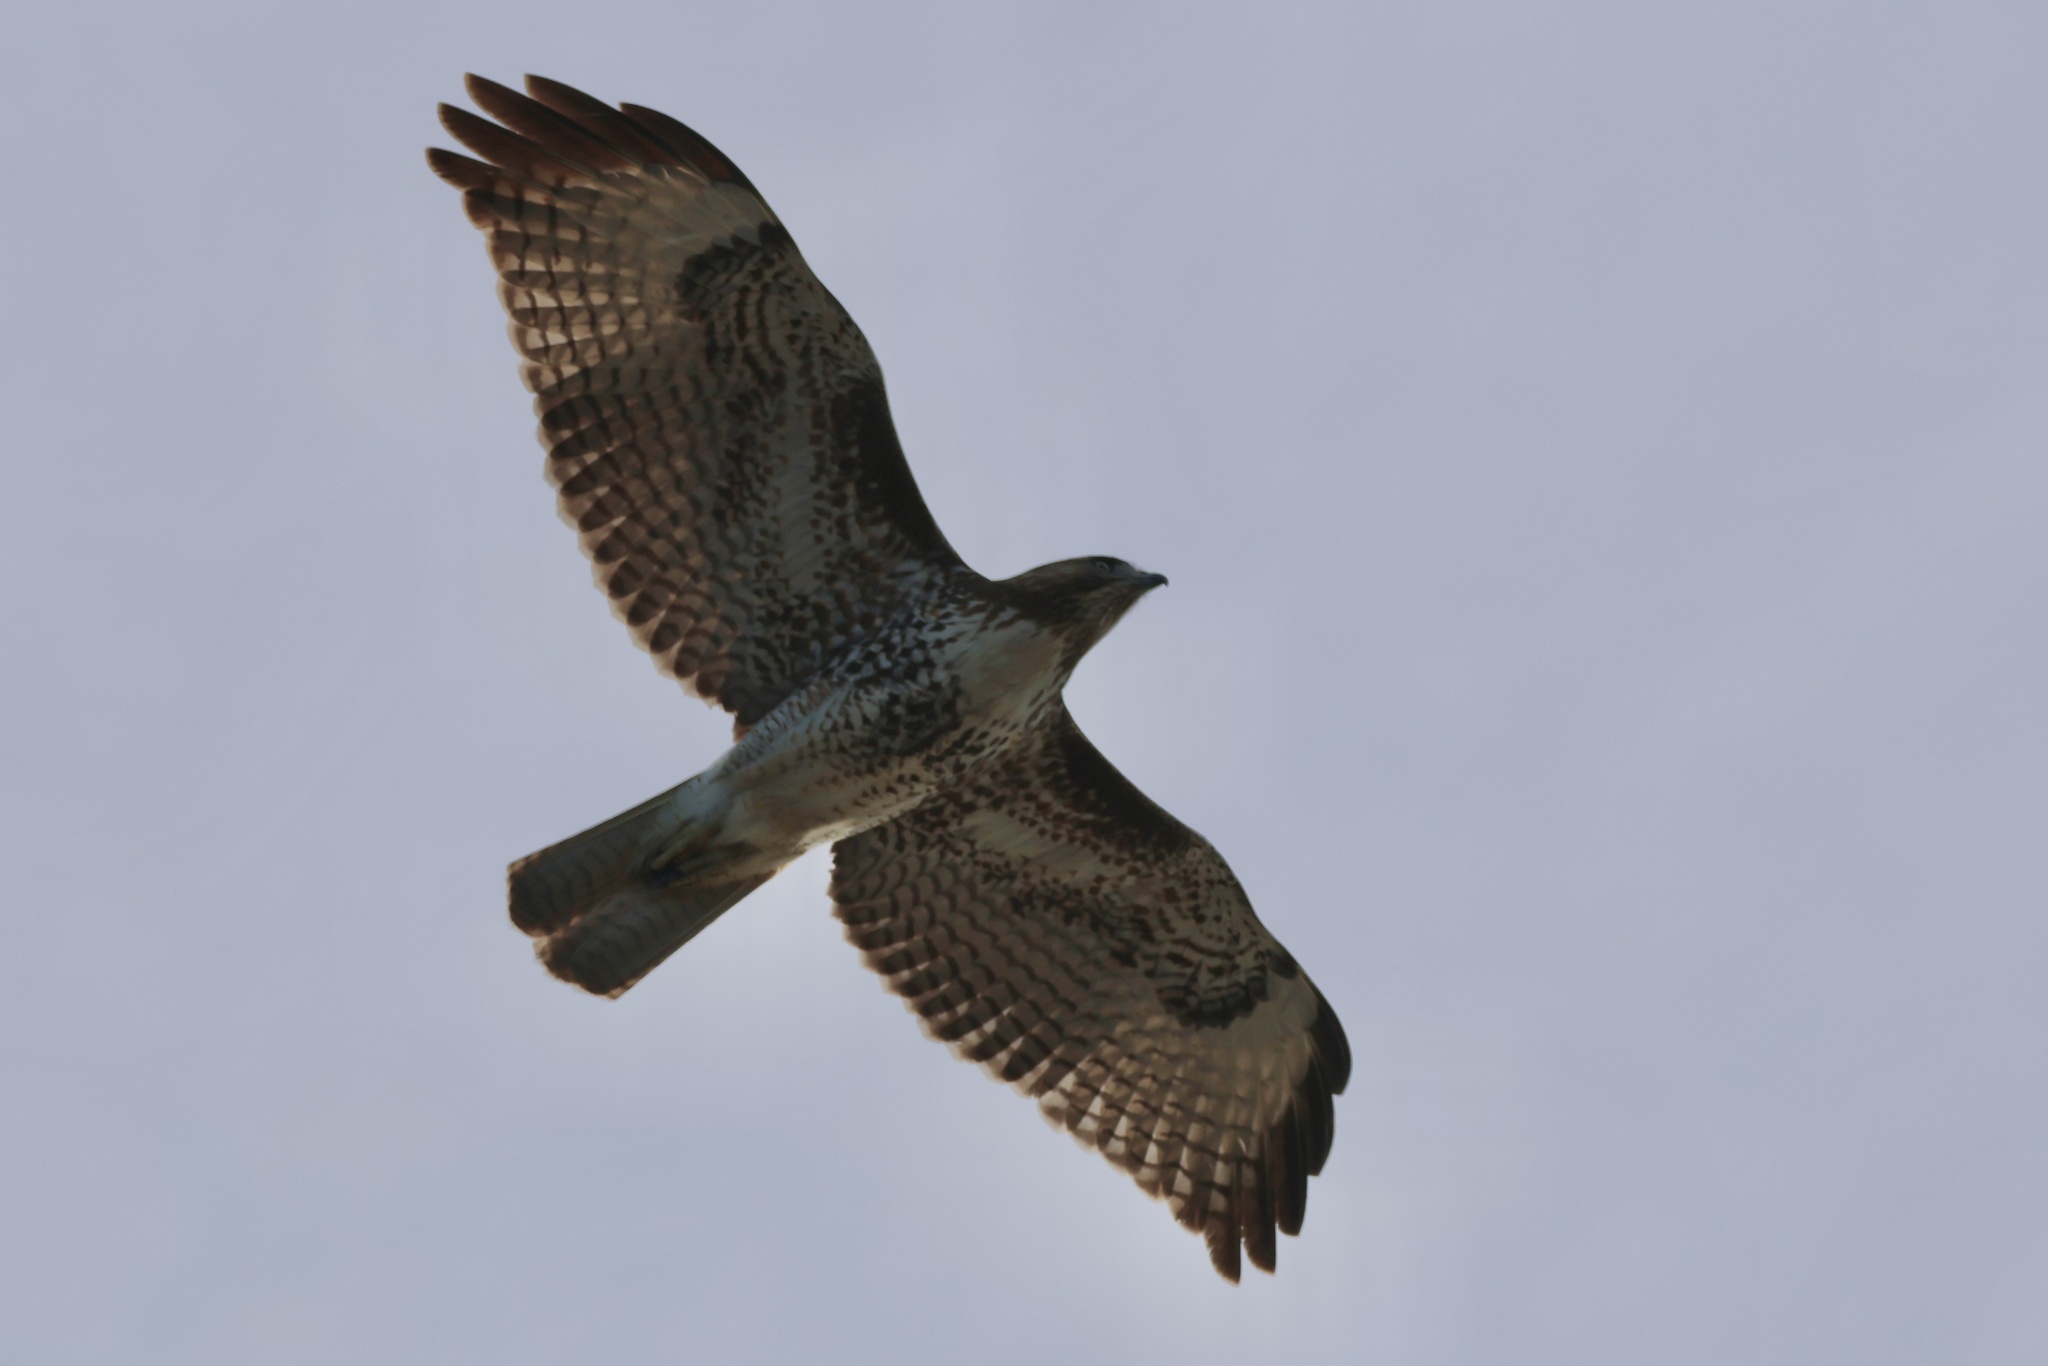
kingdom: Animalia
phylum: Chordata
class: Aves
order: Accipitriformes
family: Accipitridae
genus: Buteo
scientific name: Buteo jamaicensis
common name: Red-tailed hawk
